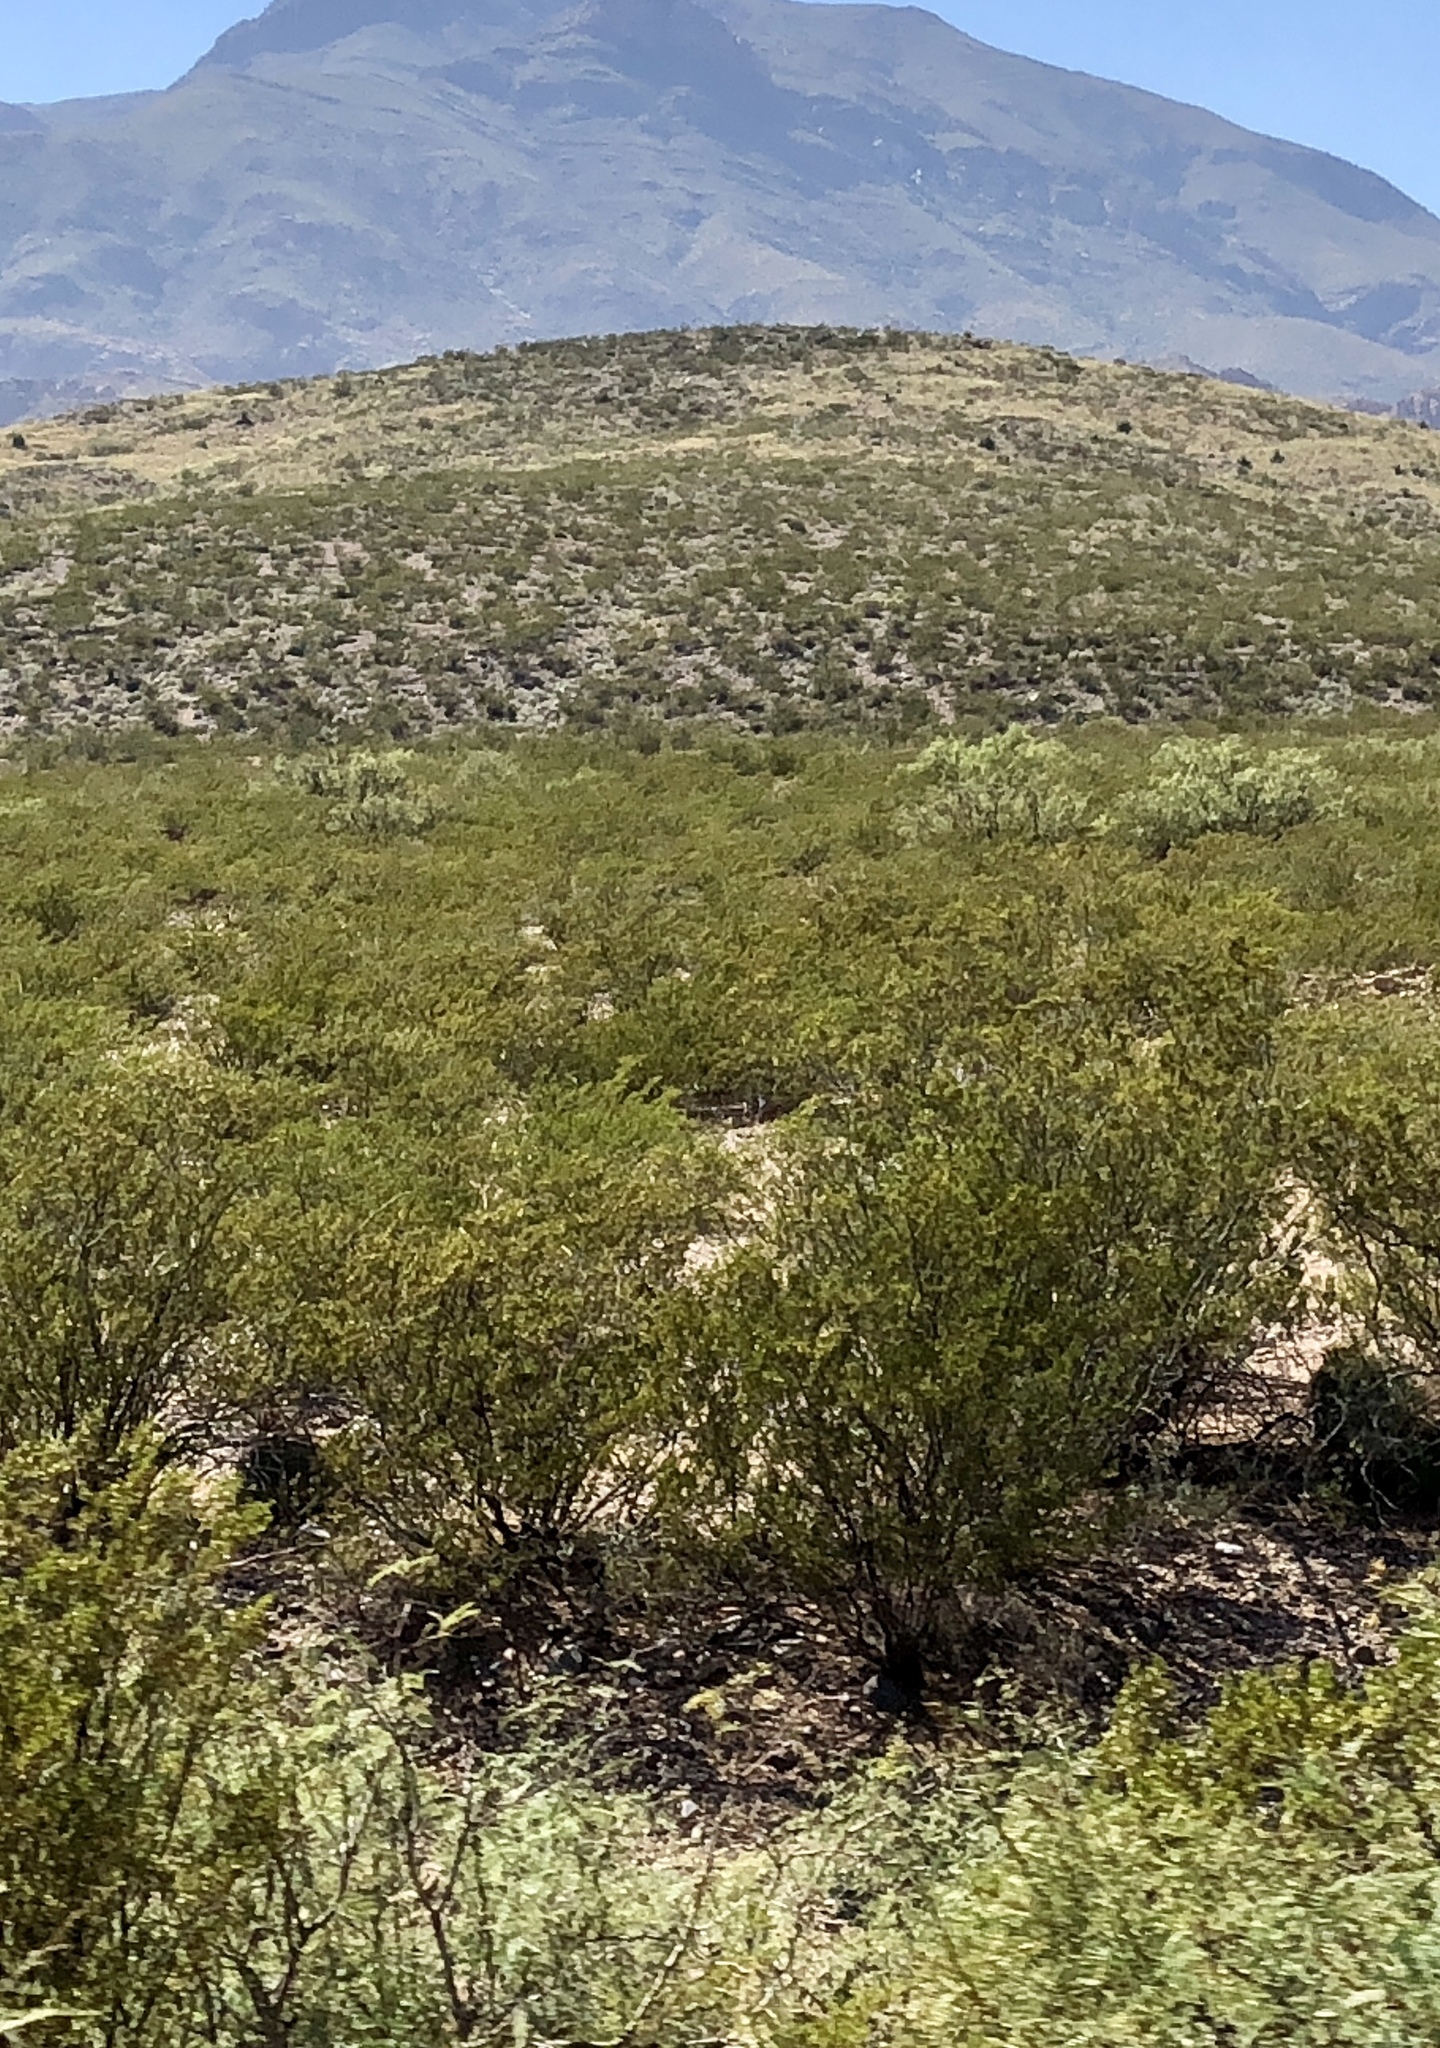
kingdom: Plantae
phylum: Tracheophyta
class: Magnoliopsida
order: Zygophyllales
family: Zygophyllaceae
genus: Larrea
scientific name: Larrea tridentata
